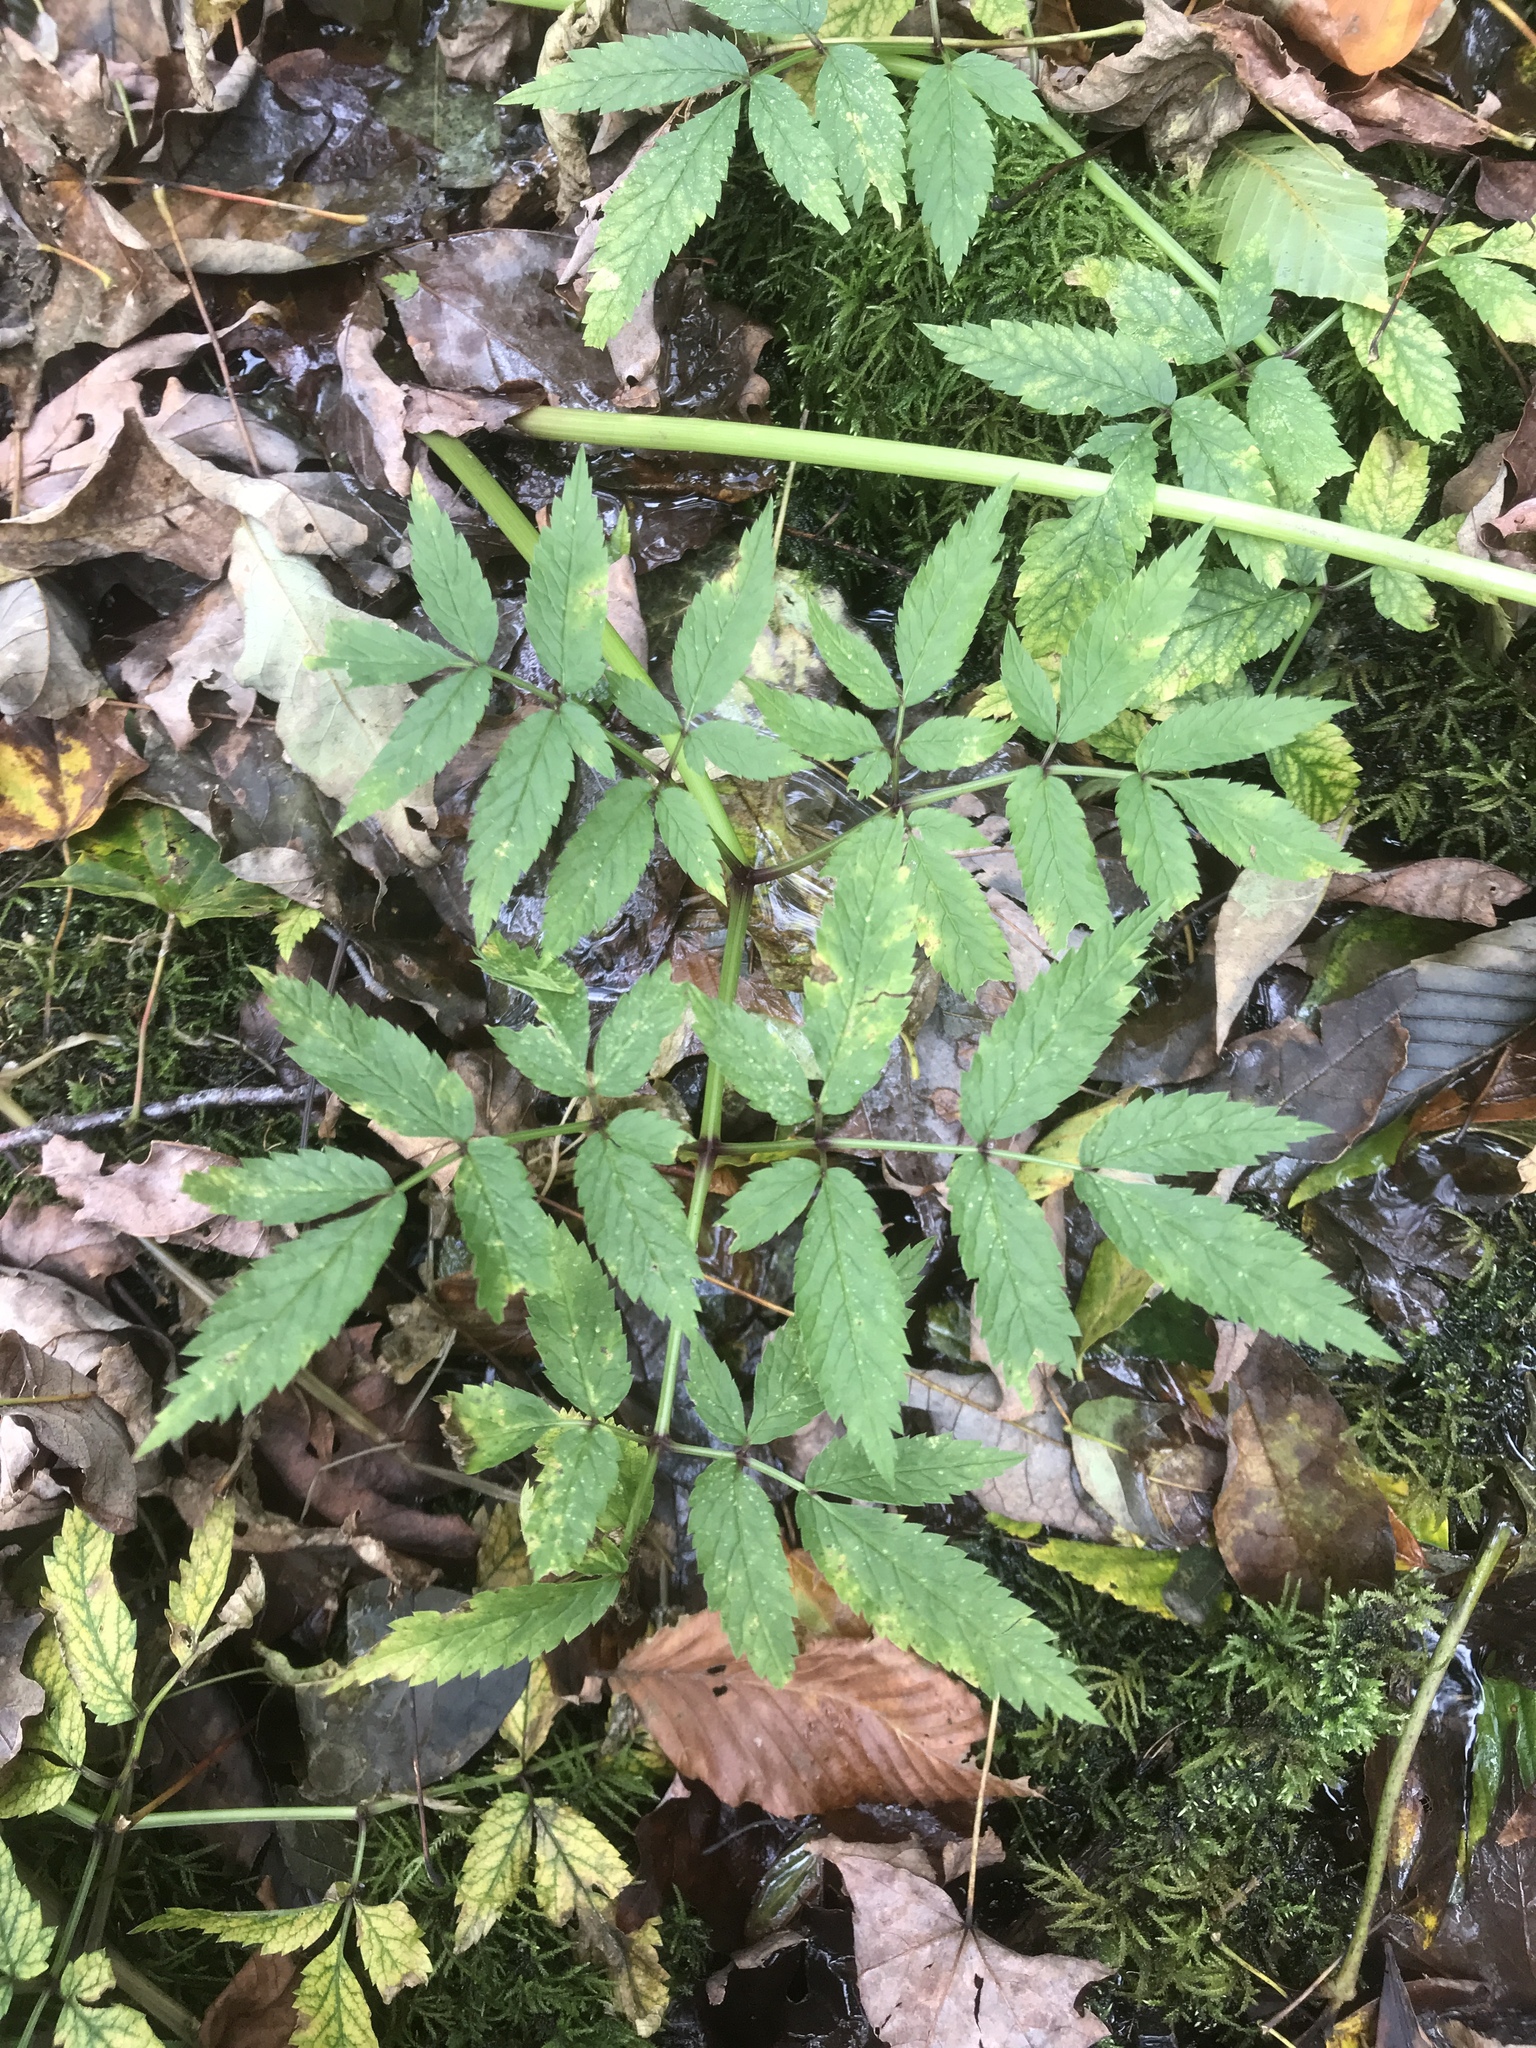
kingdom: Plantae
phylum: Tracheophyta
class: Magnoliopsida
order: Apiales
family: Apiaceae
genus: Cicuta
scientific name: Cicuta maculata
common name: Spotted cowbane
